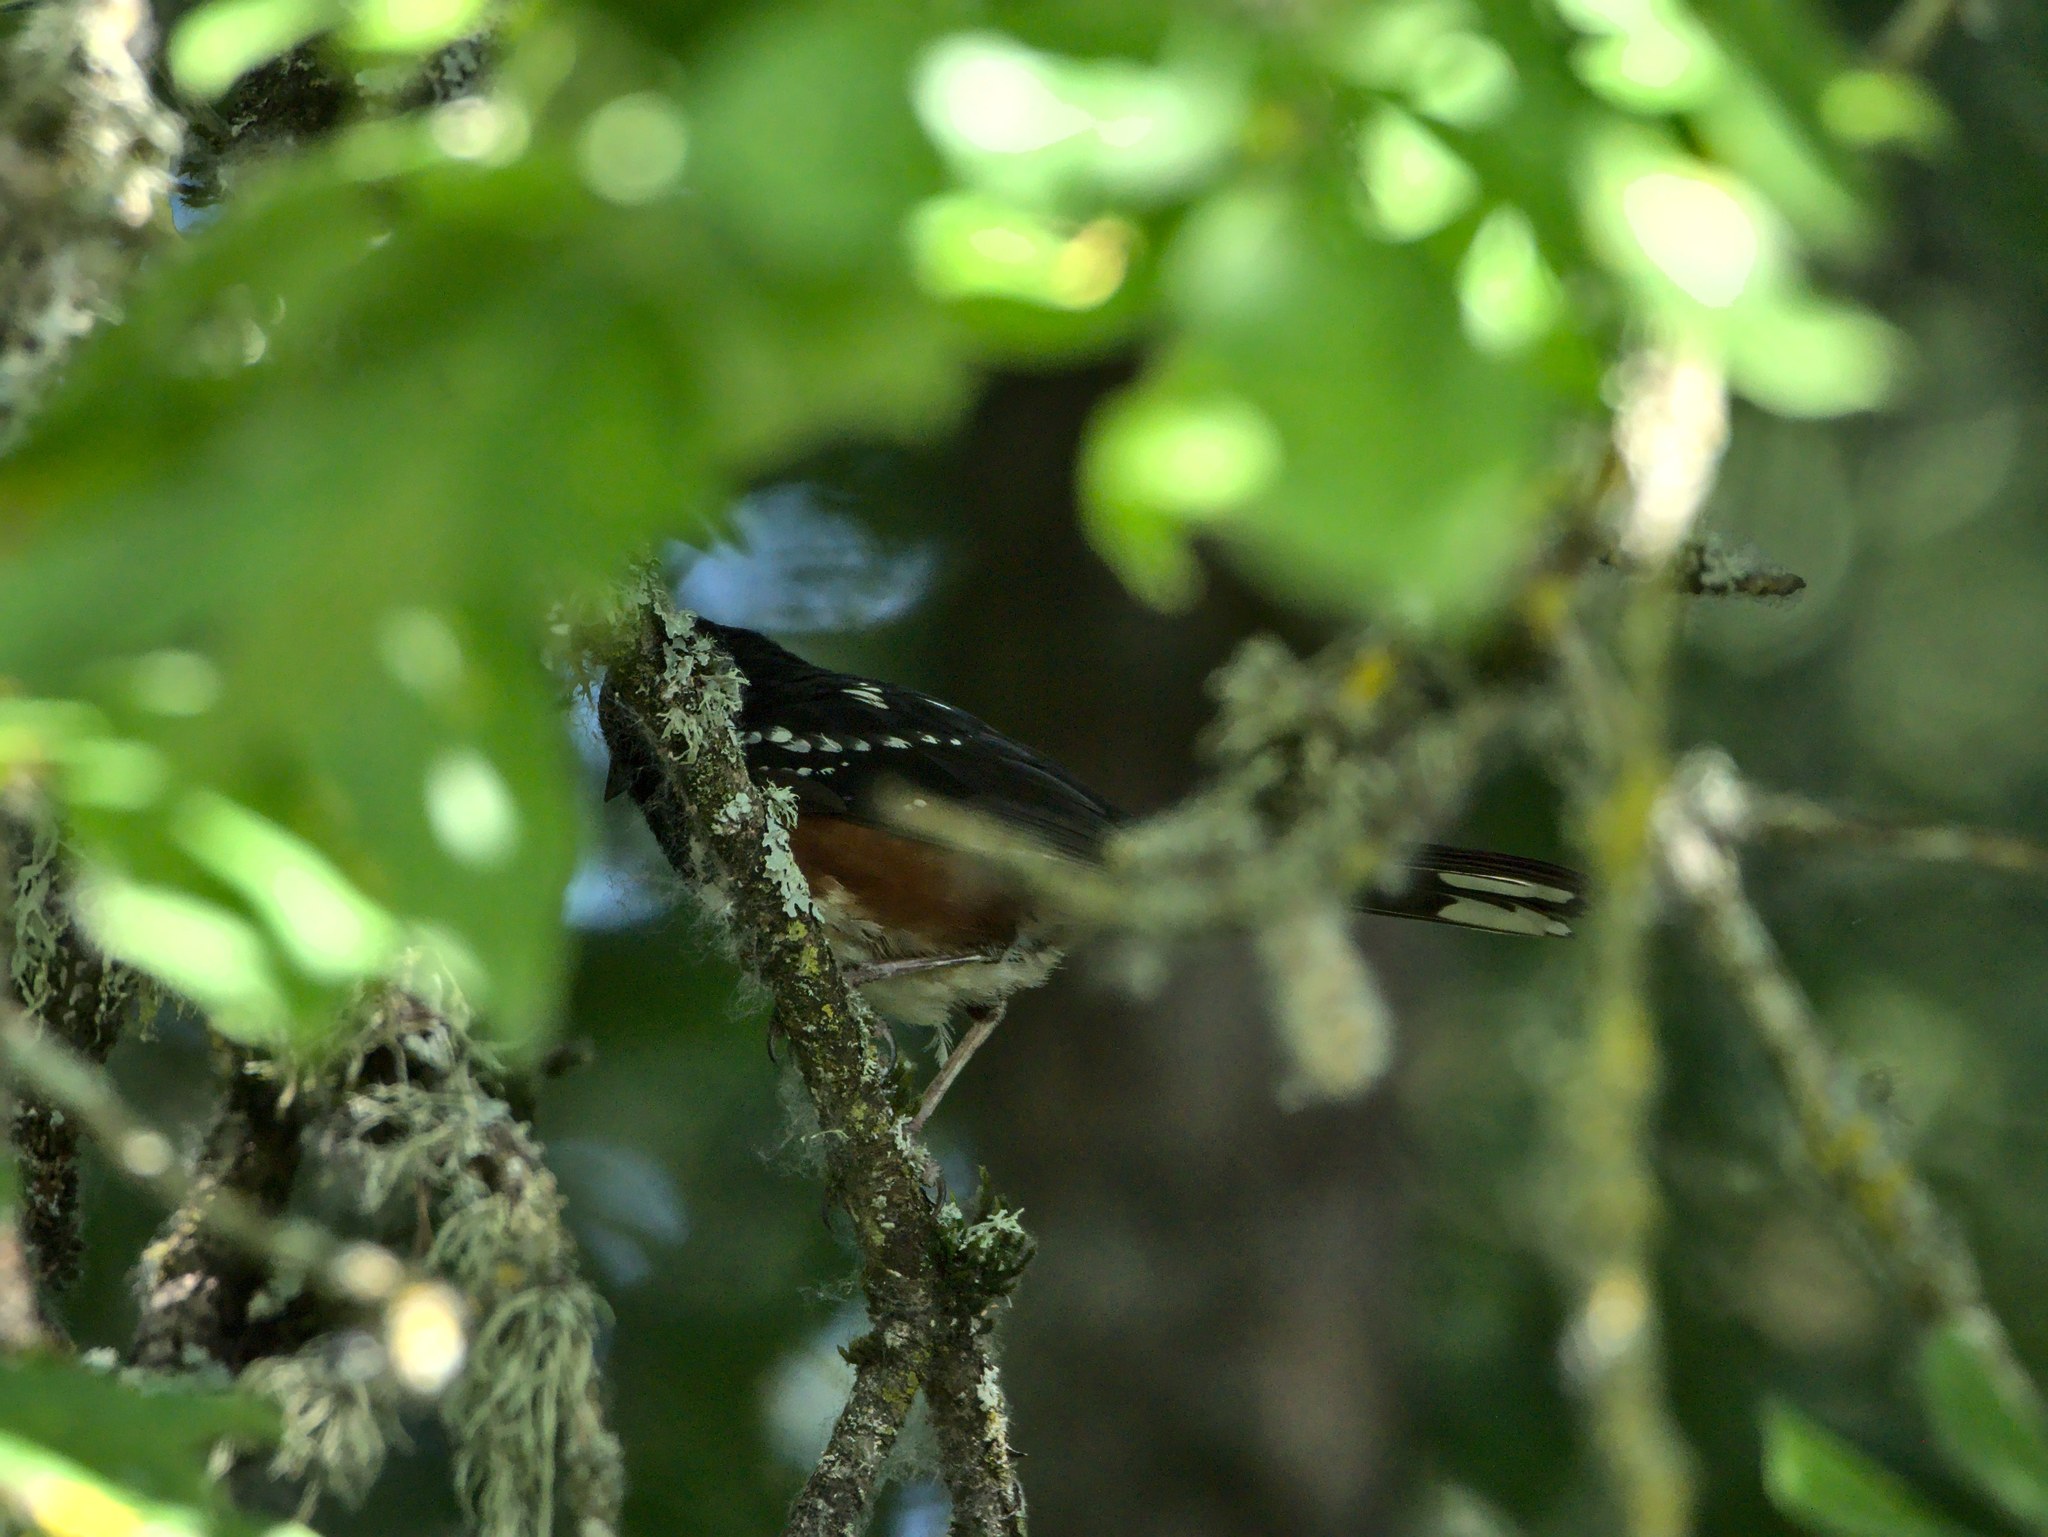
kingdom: Animalia
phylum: Chordata
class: Aves
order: Passeriformes
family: Passerellidae
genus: Pipilo
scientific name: Pipilo maculatus
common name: Spotted towhee
